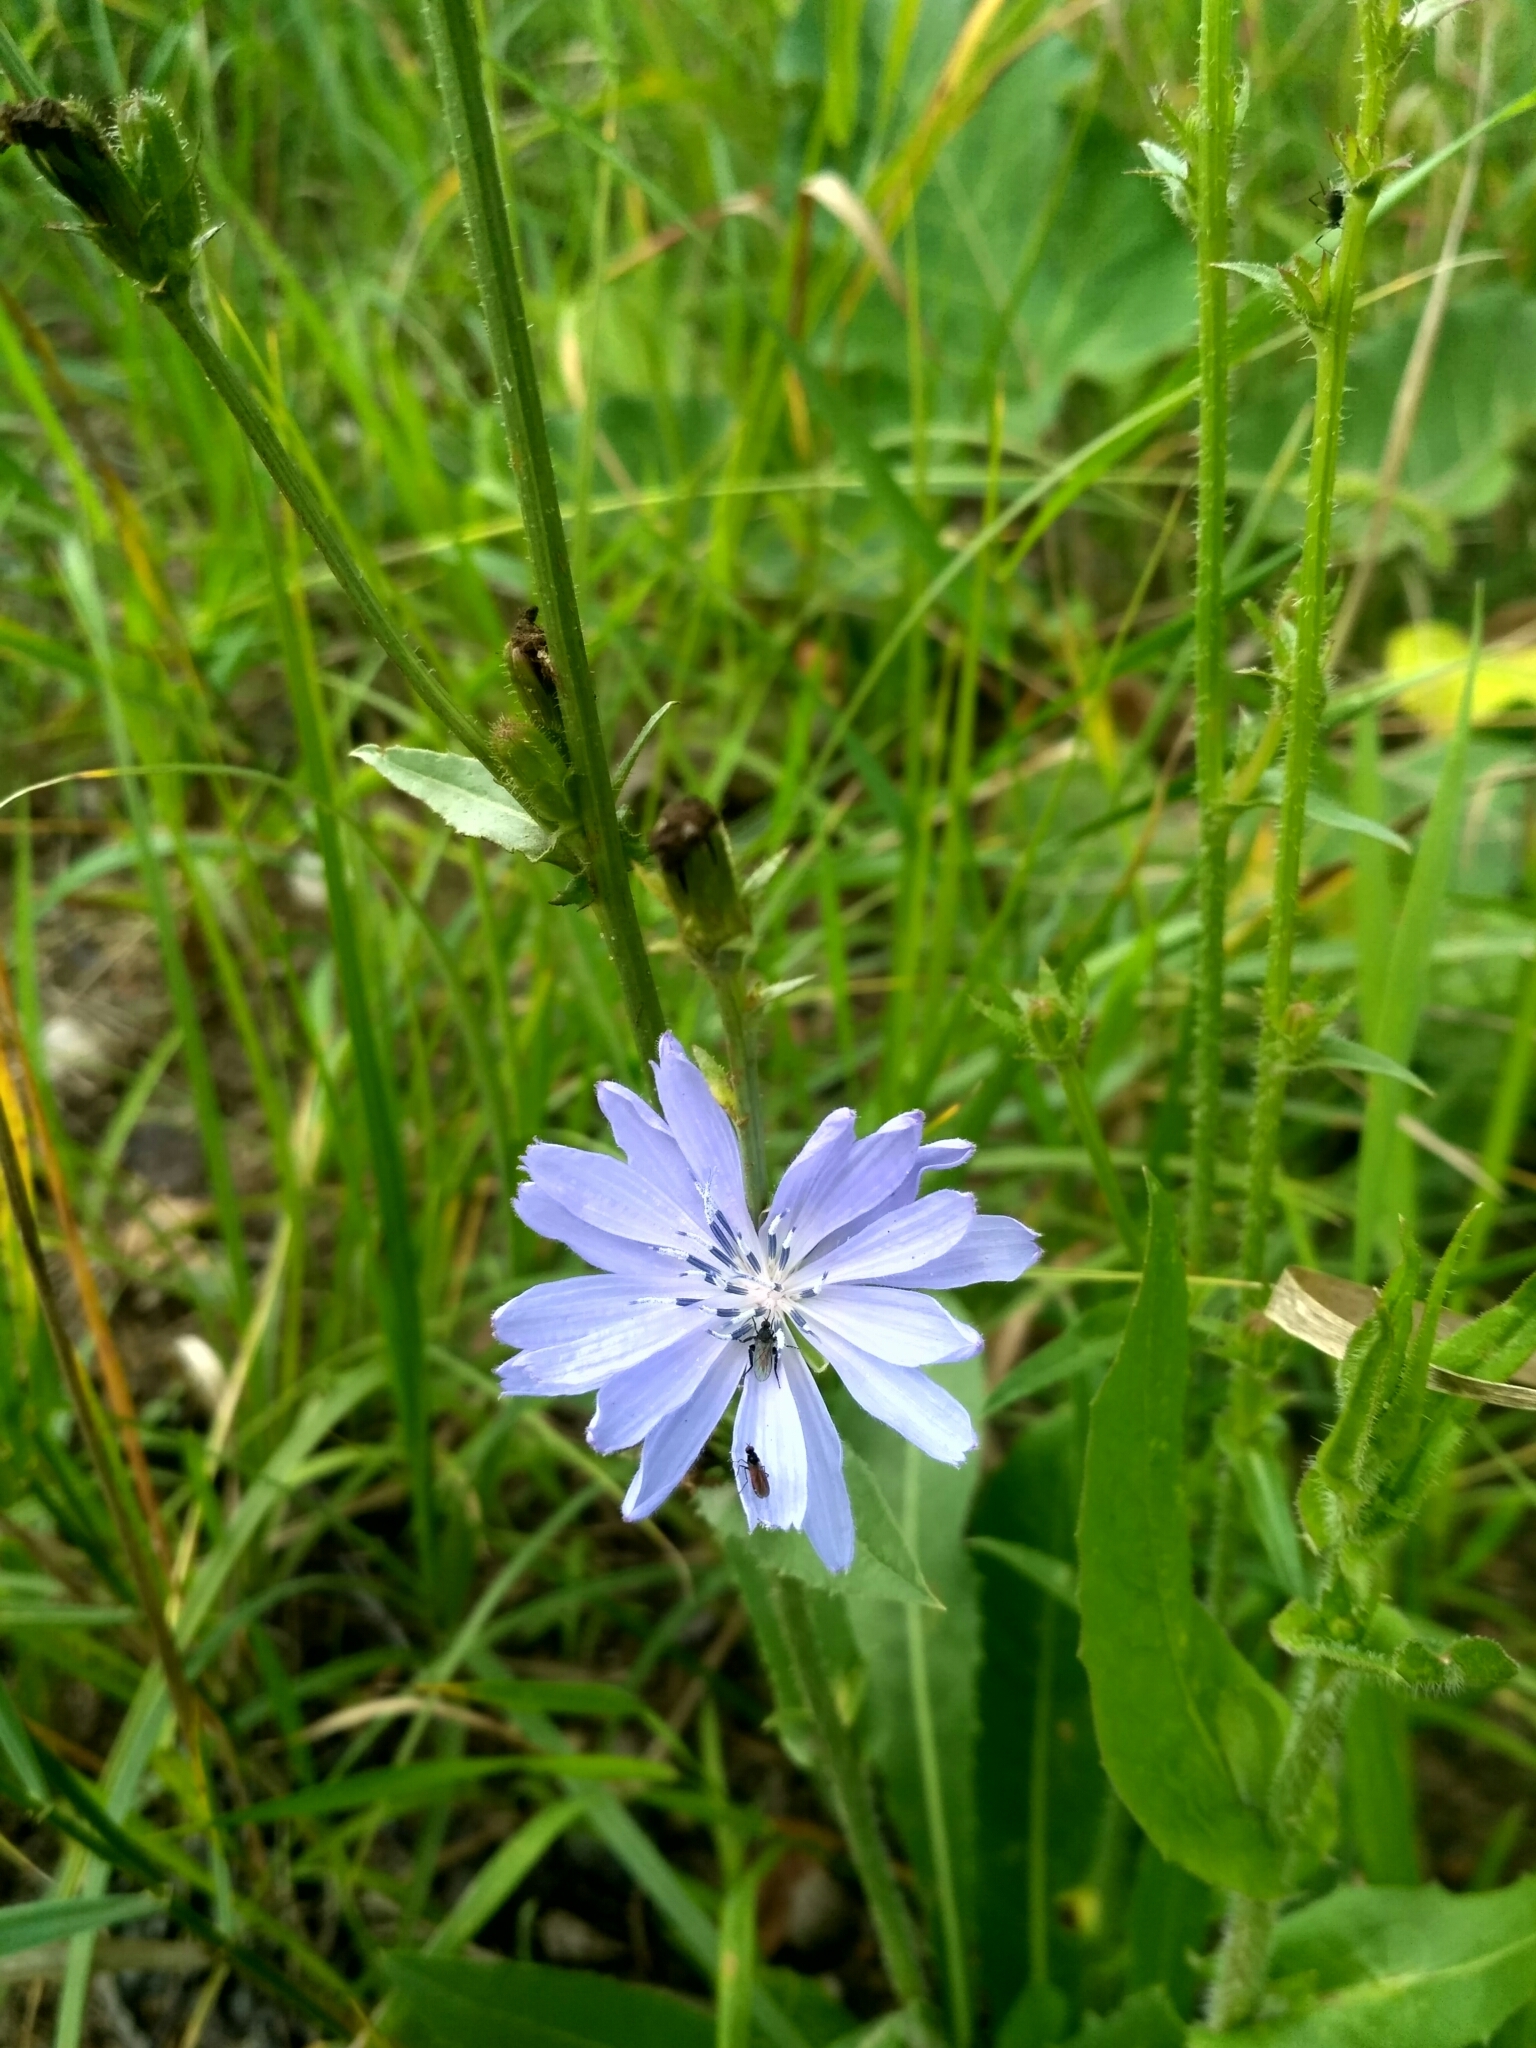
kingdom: Plantae
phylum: Tracheophyta
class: Magnoliopsida
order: Asterales
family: Asteraceae
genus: Cichorium
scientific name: Cichorium intybus
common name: Chicory
